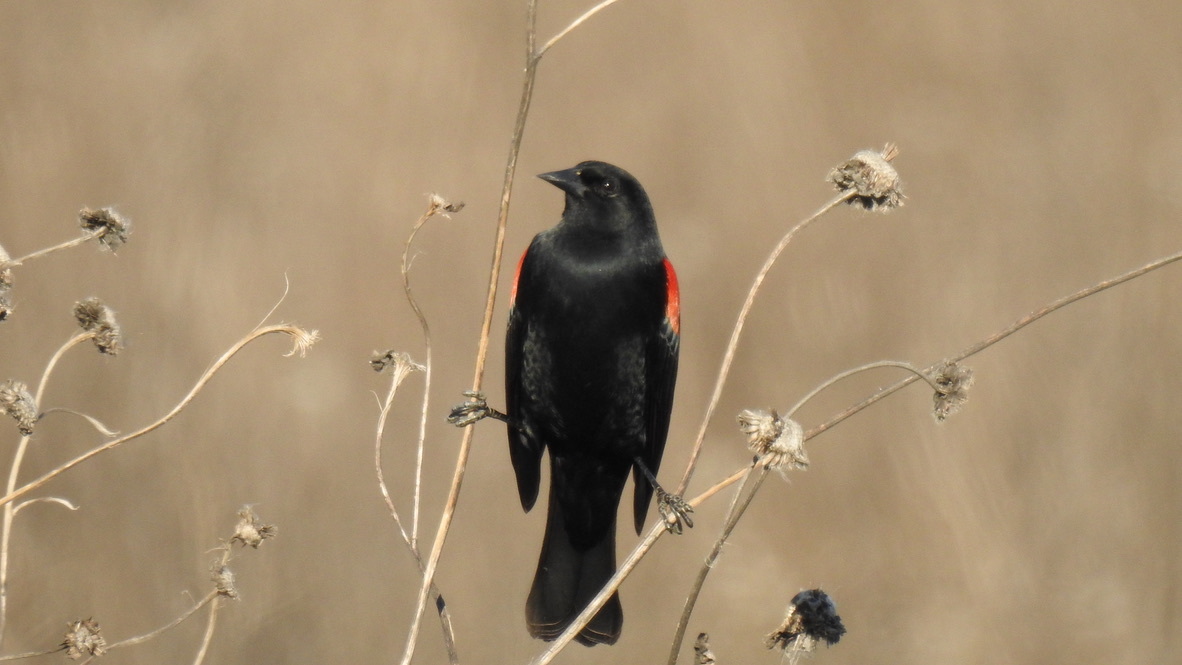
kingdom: Animalia
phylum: Chordata
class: Aves
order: Passeriformes
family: Icteridae
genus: Agelaius
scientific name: Agelaius phoeniceus
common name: Red-winged blackbird
